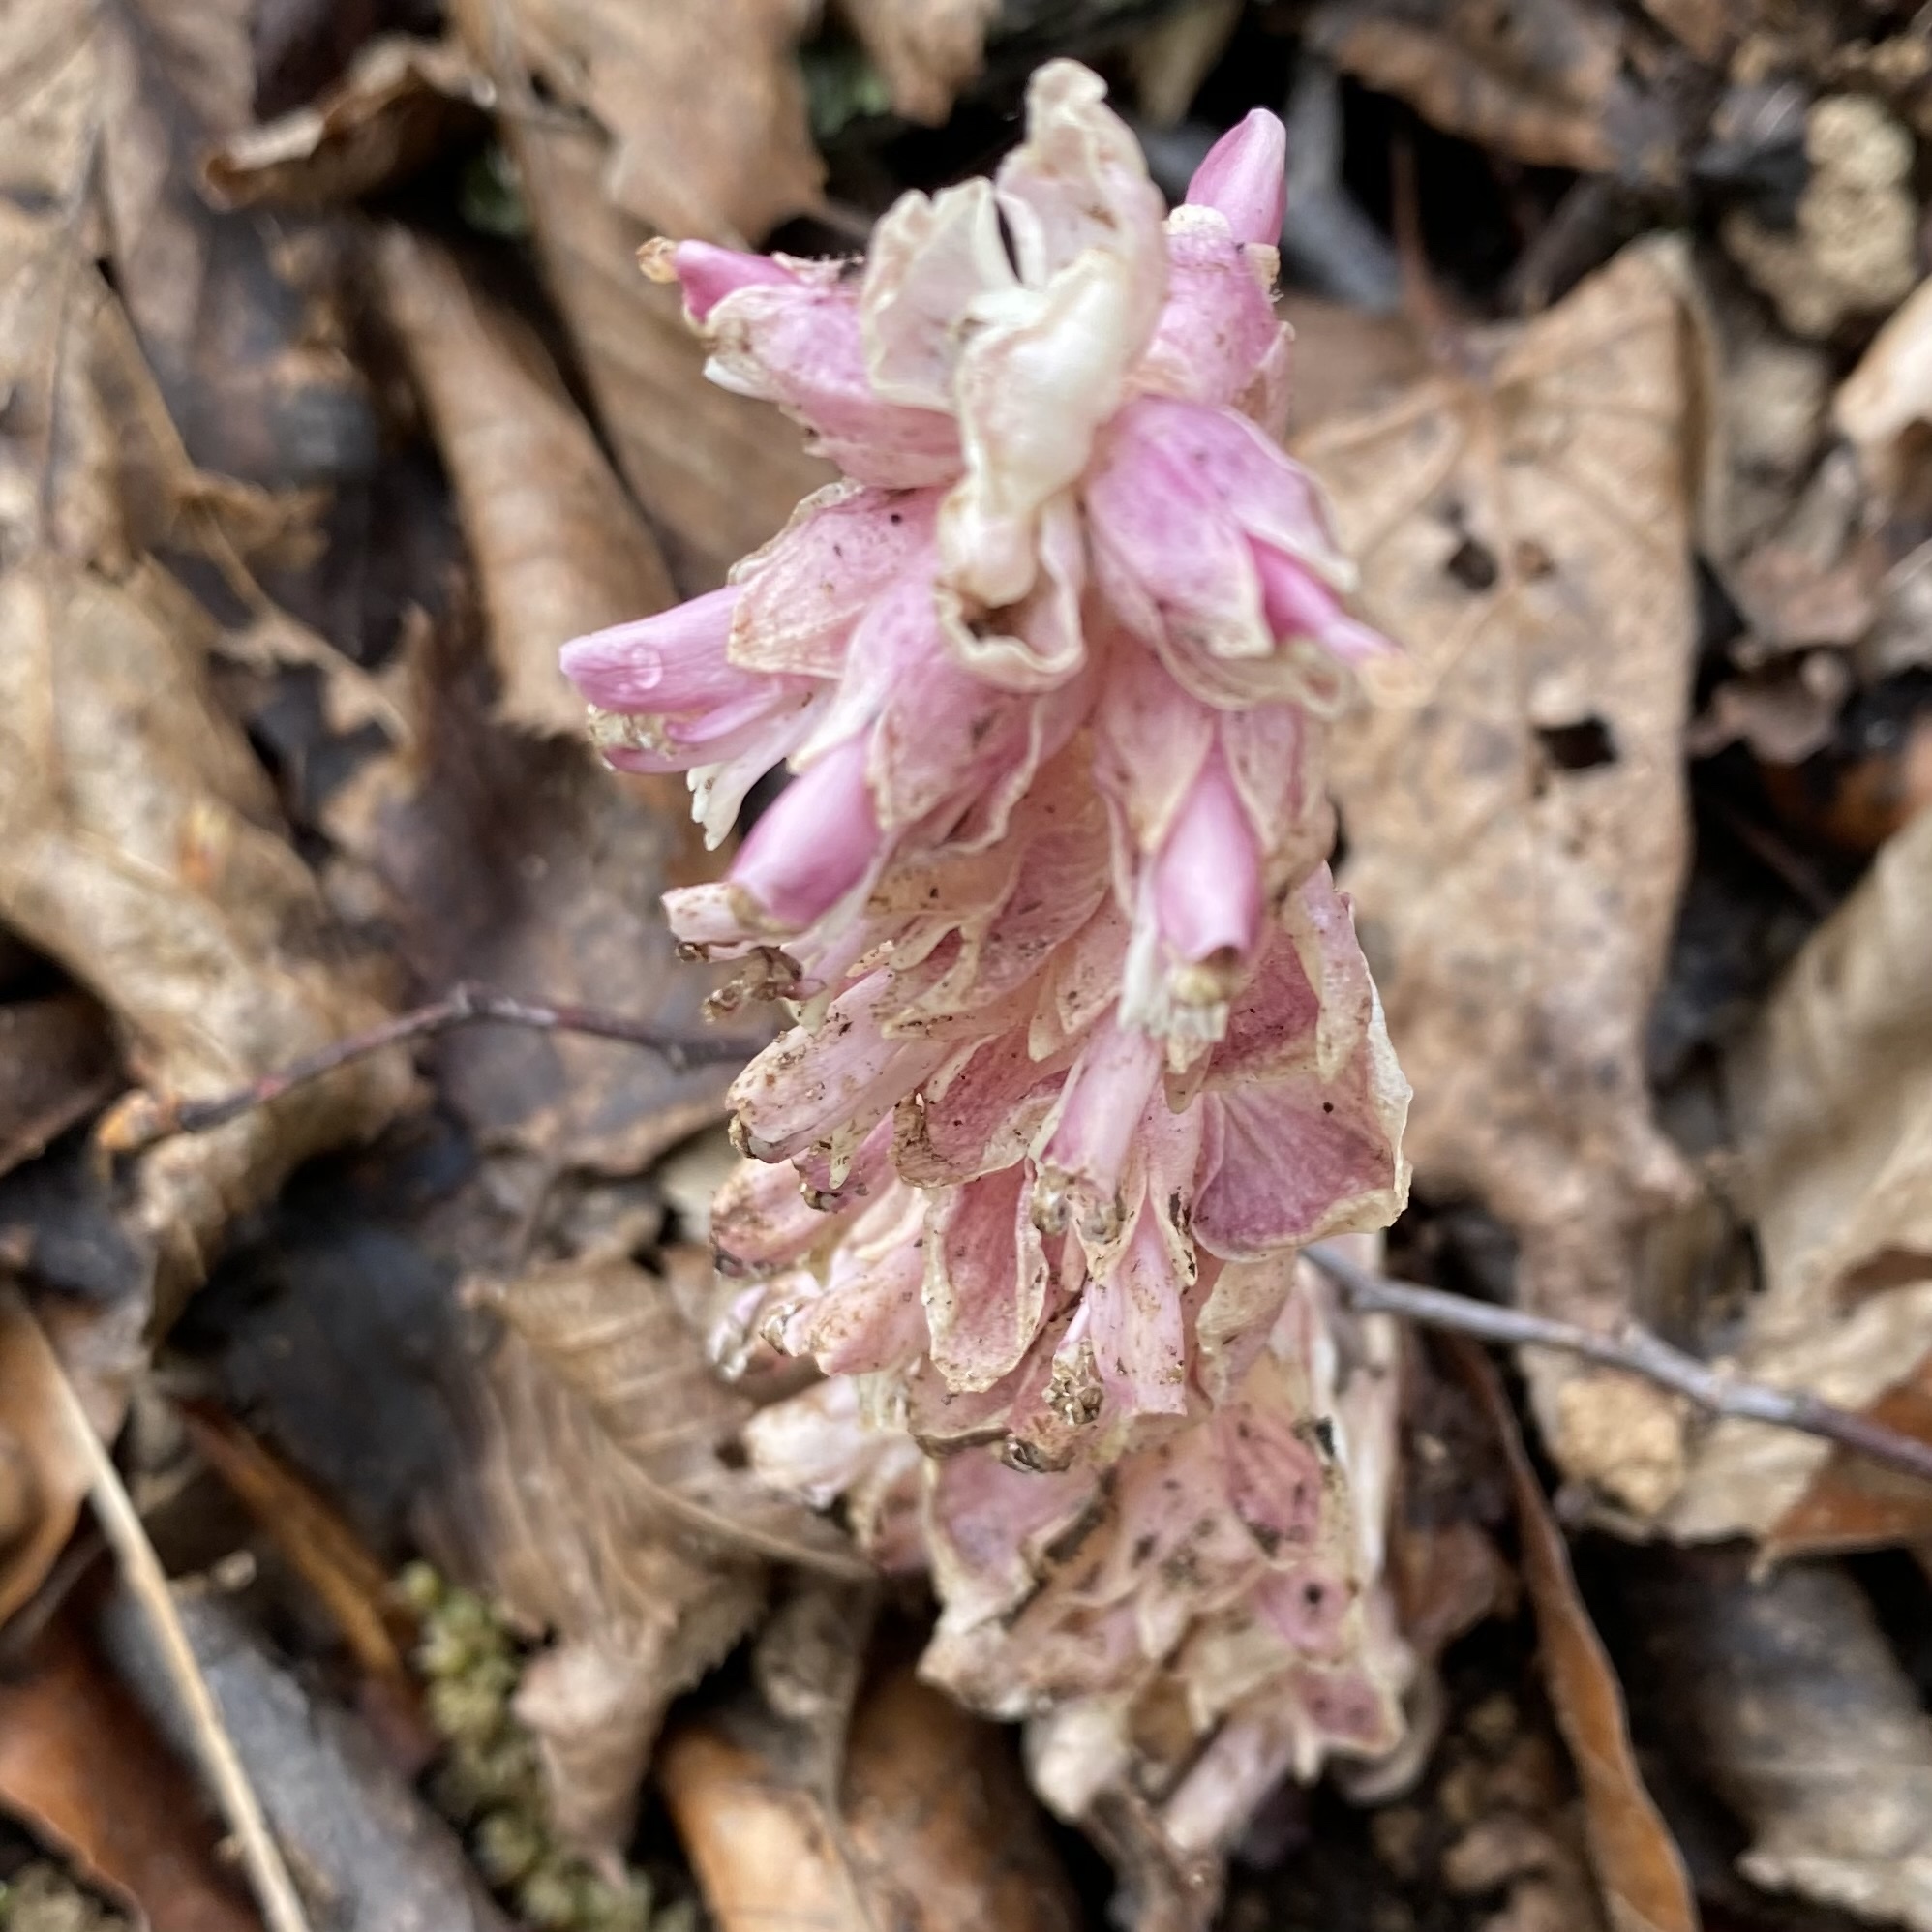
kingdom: Plantae
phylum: Tracheophyta
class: Magnoliopsida
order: Lamiales
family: Orobanchaceae
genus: Lathraea
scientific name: Lathraea squamaria
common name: Toothwort
